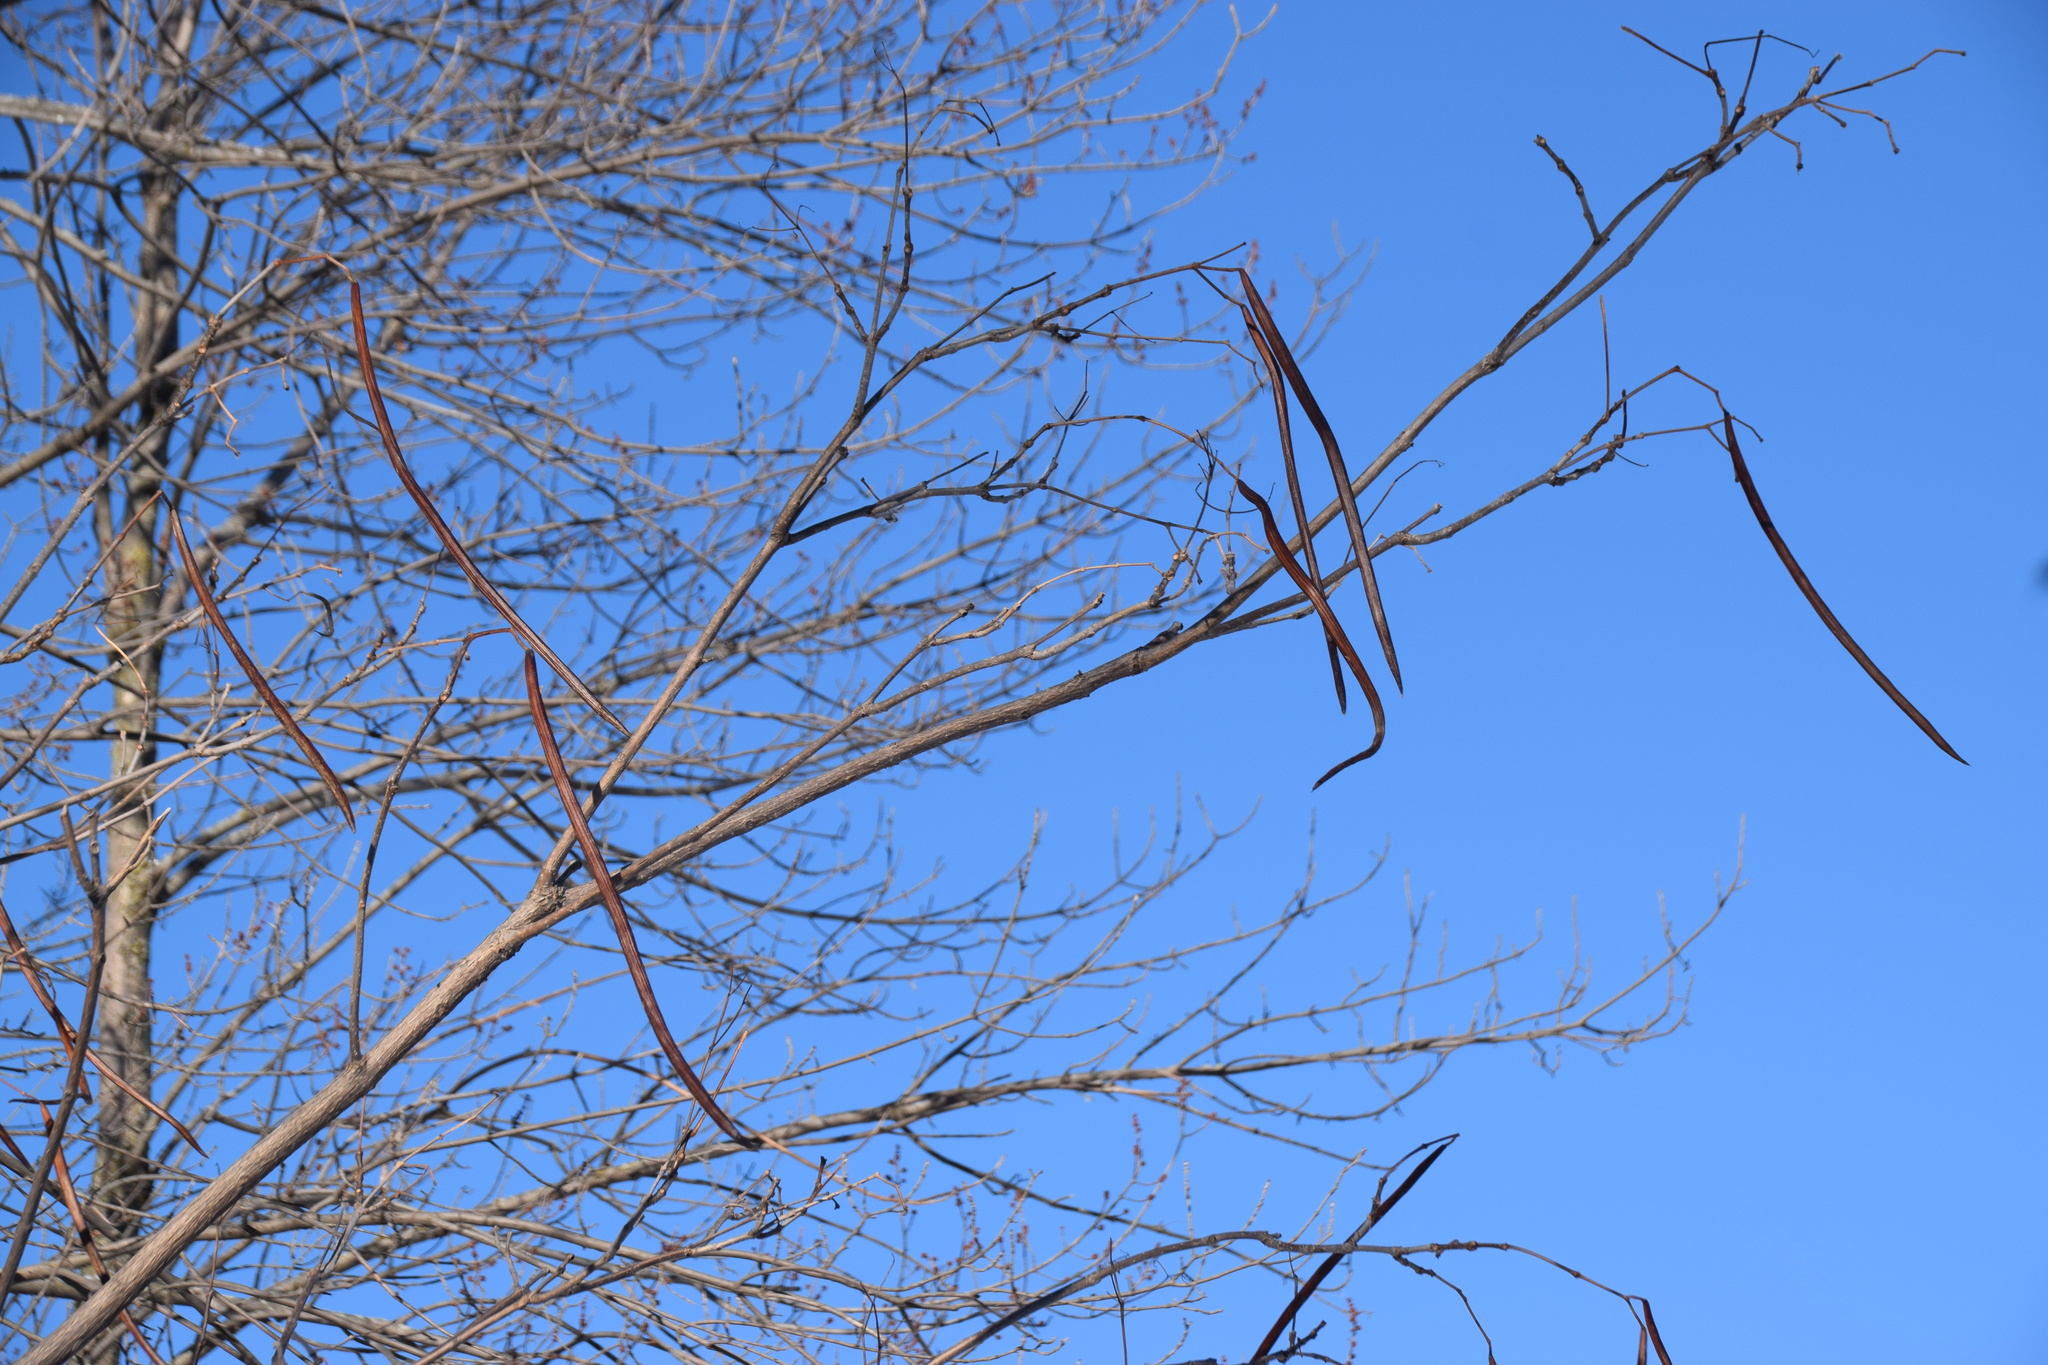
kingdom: Plantae
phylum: Tracheophyta
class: Magnoliopsida
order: Lamiales
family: Bignoniaceae
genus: Catalpa
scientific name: Catalpa speciosa
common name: Northern catalpa
